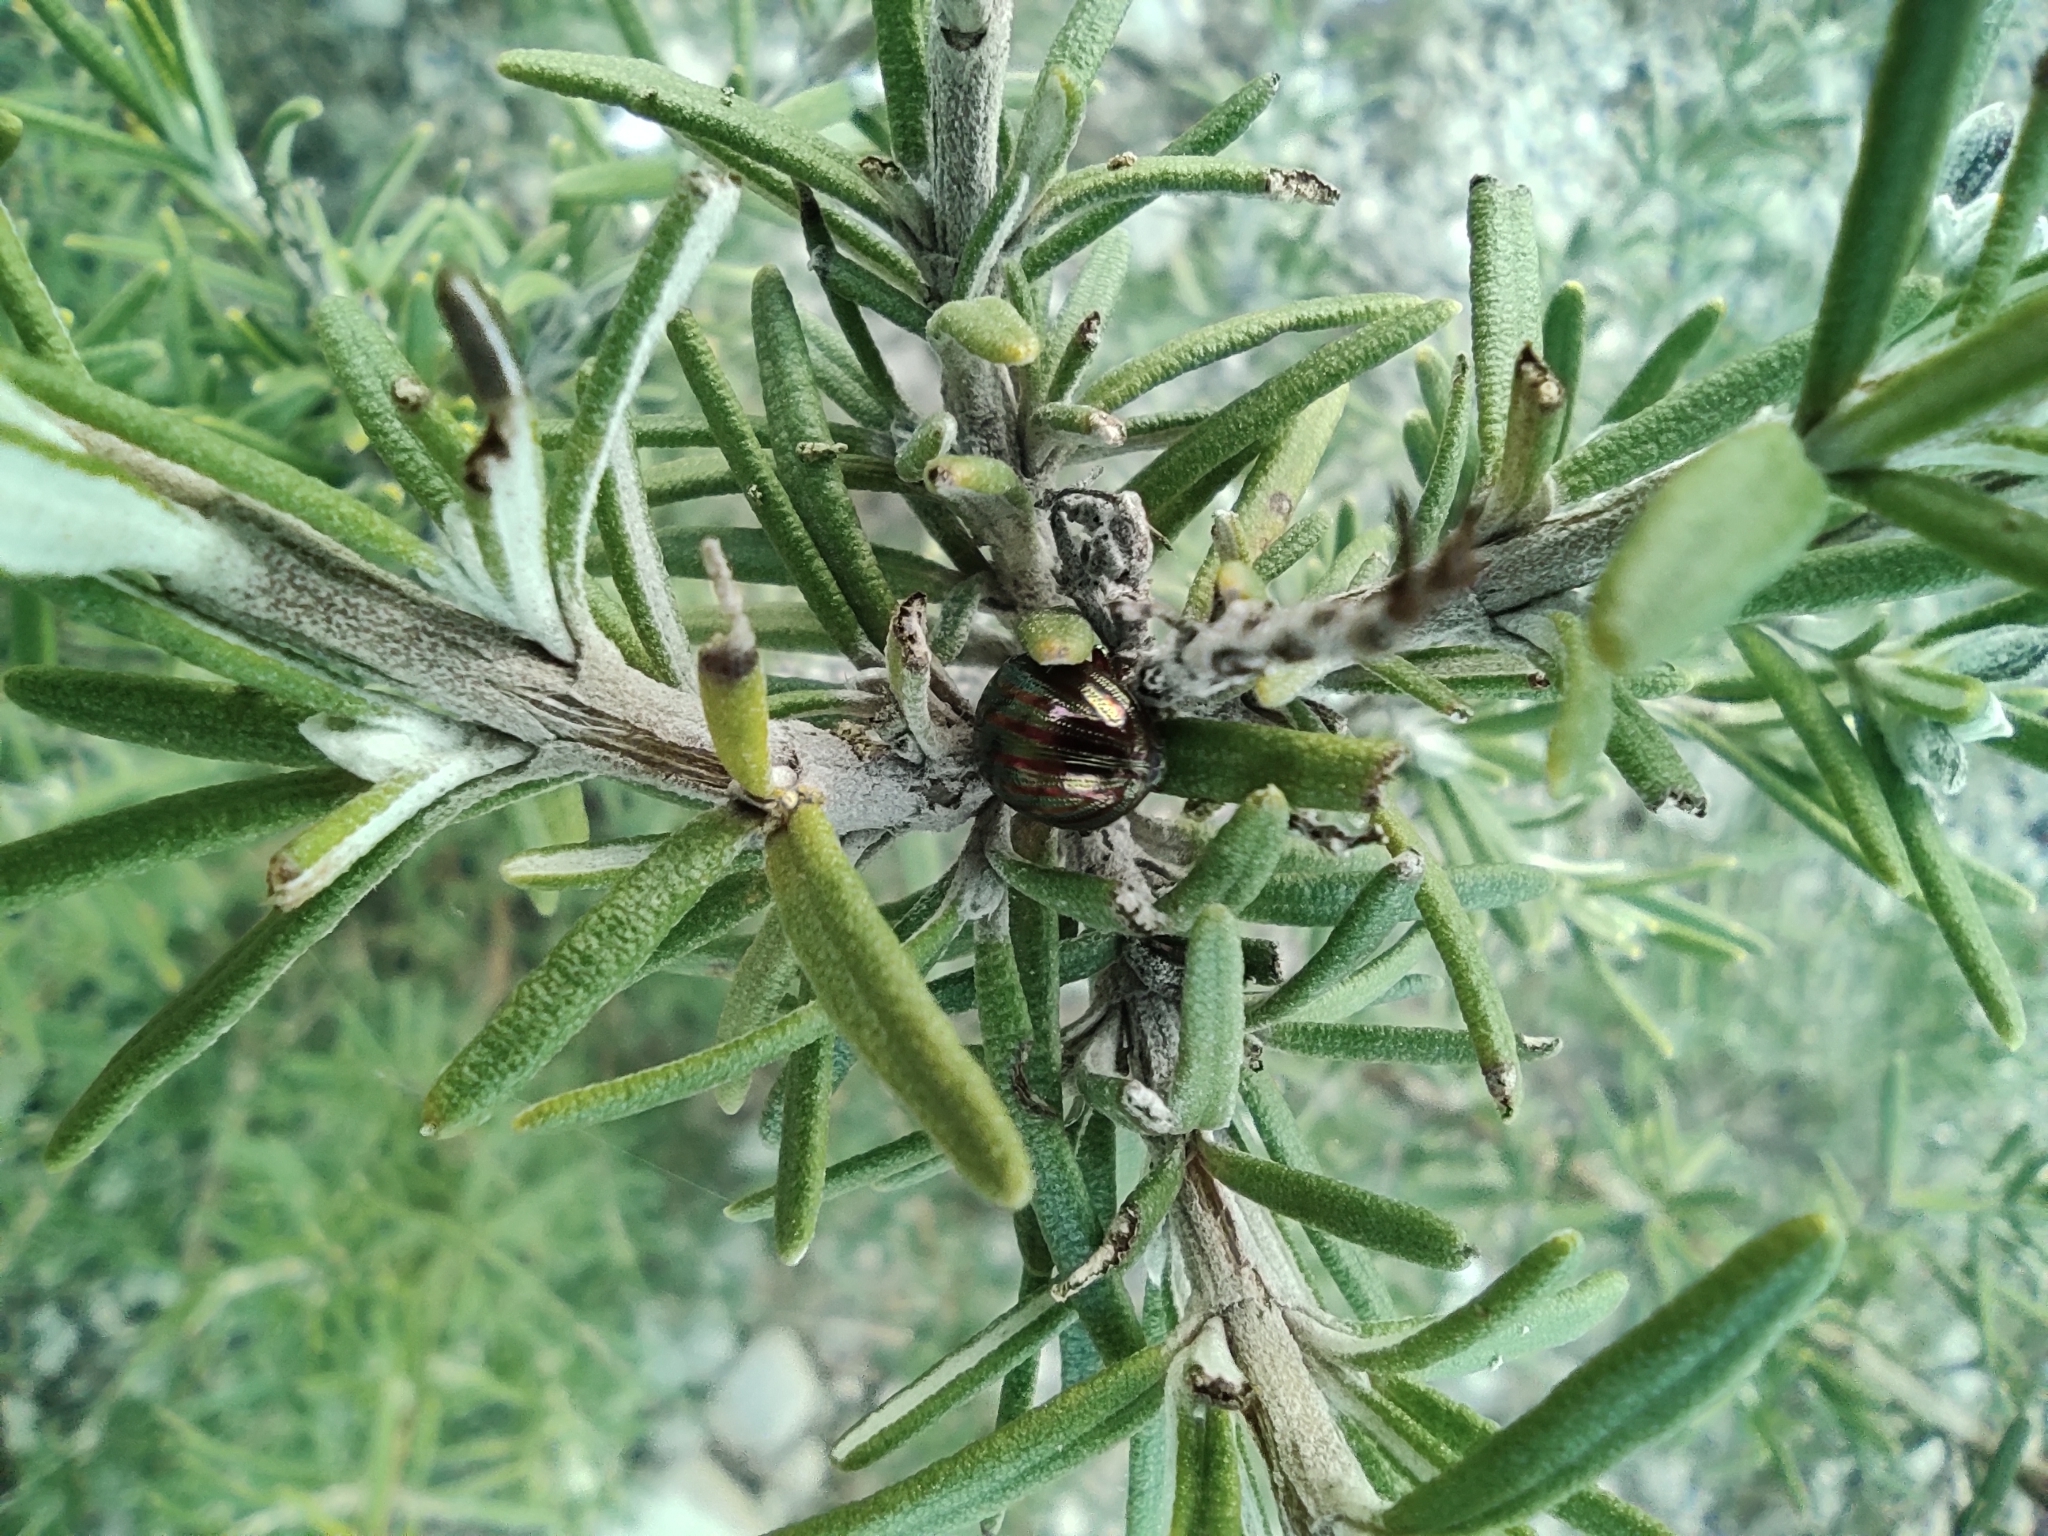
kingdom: Animalia
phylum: Arthropoda
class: Insecta
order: Coleoptera
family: Chrysomelidae
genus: Chrysolina
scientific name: Chrysolina americana
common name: Rosemary beetle
